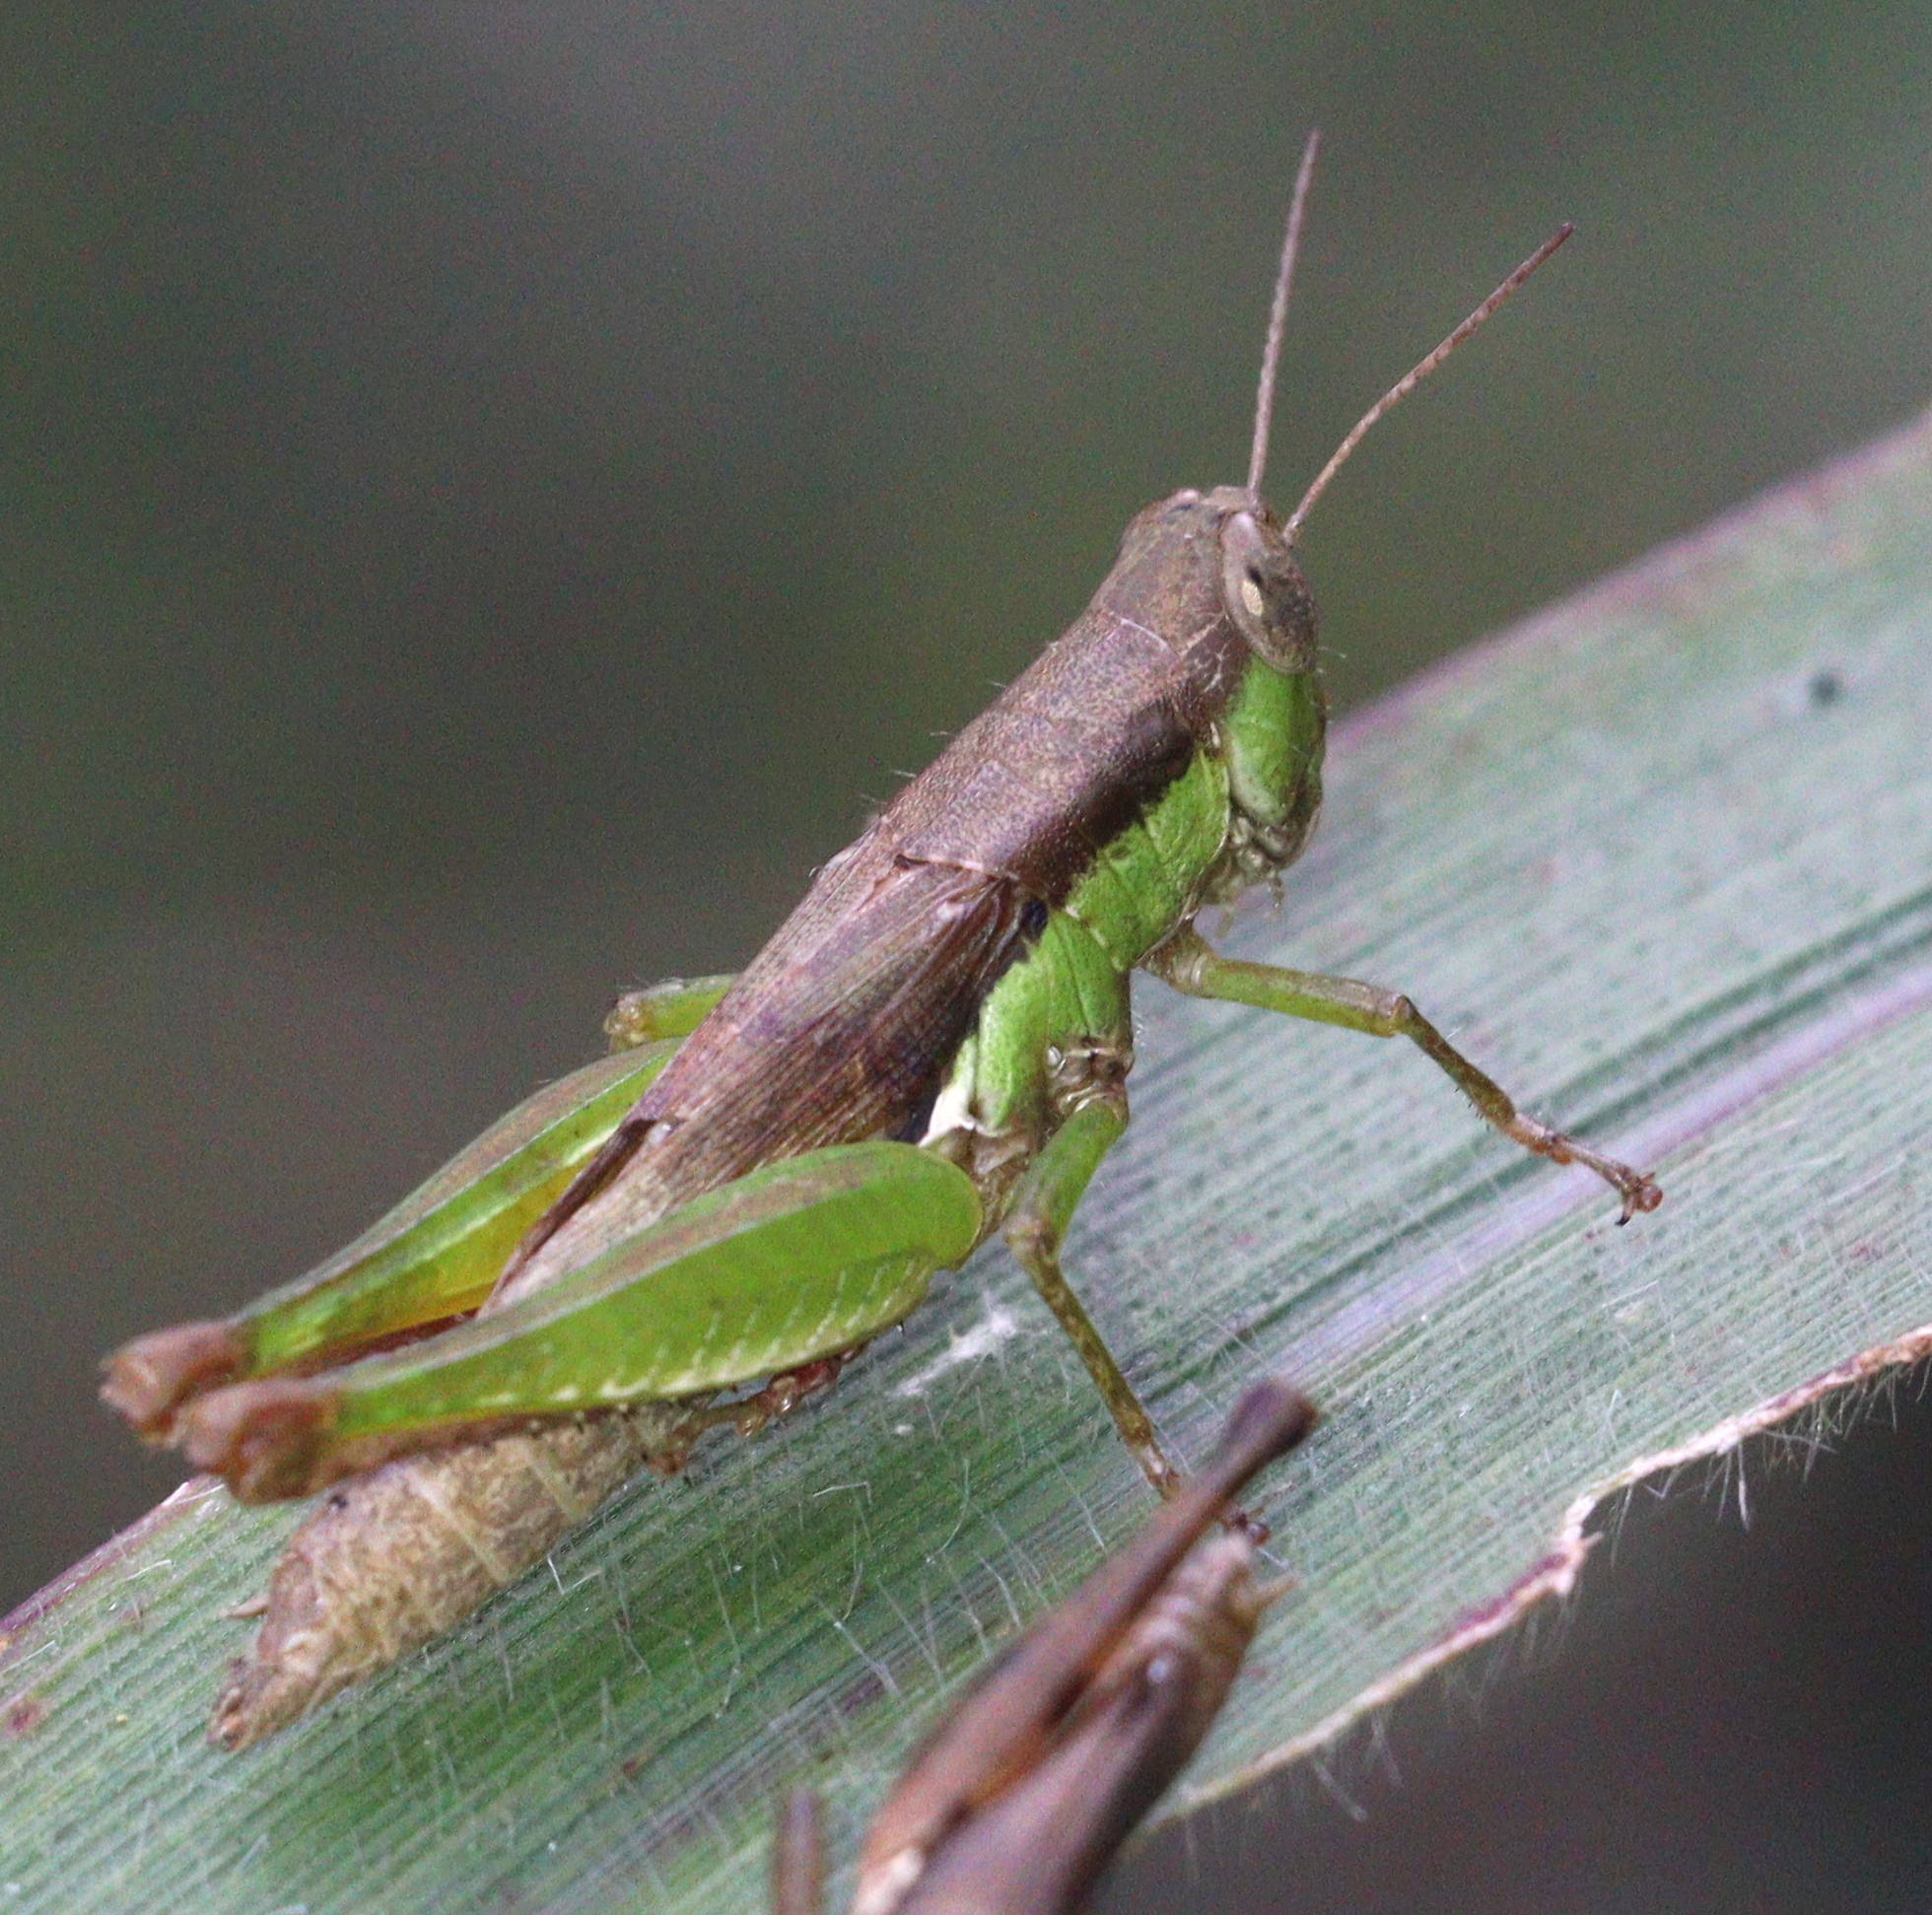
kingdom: Animalia
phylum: Arthropoda
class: Insecta
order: Orthoptera
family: Acrididae
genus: Pseudoxya
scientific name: Pseudoxya diminuta
